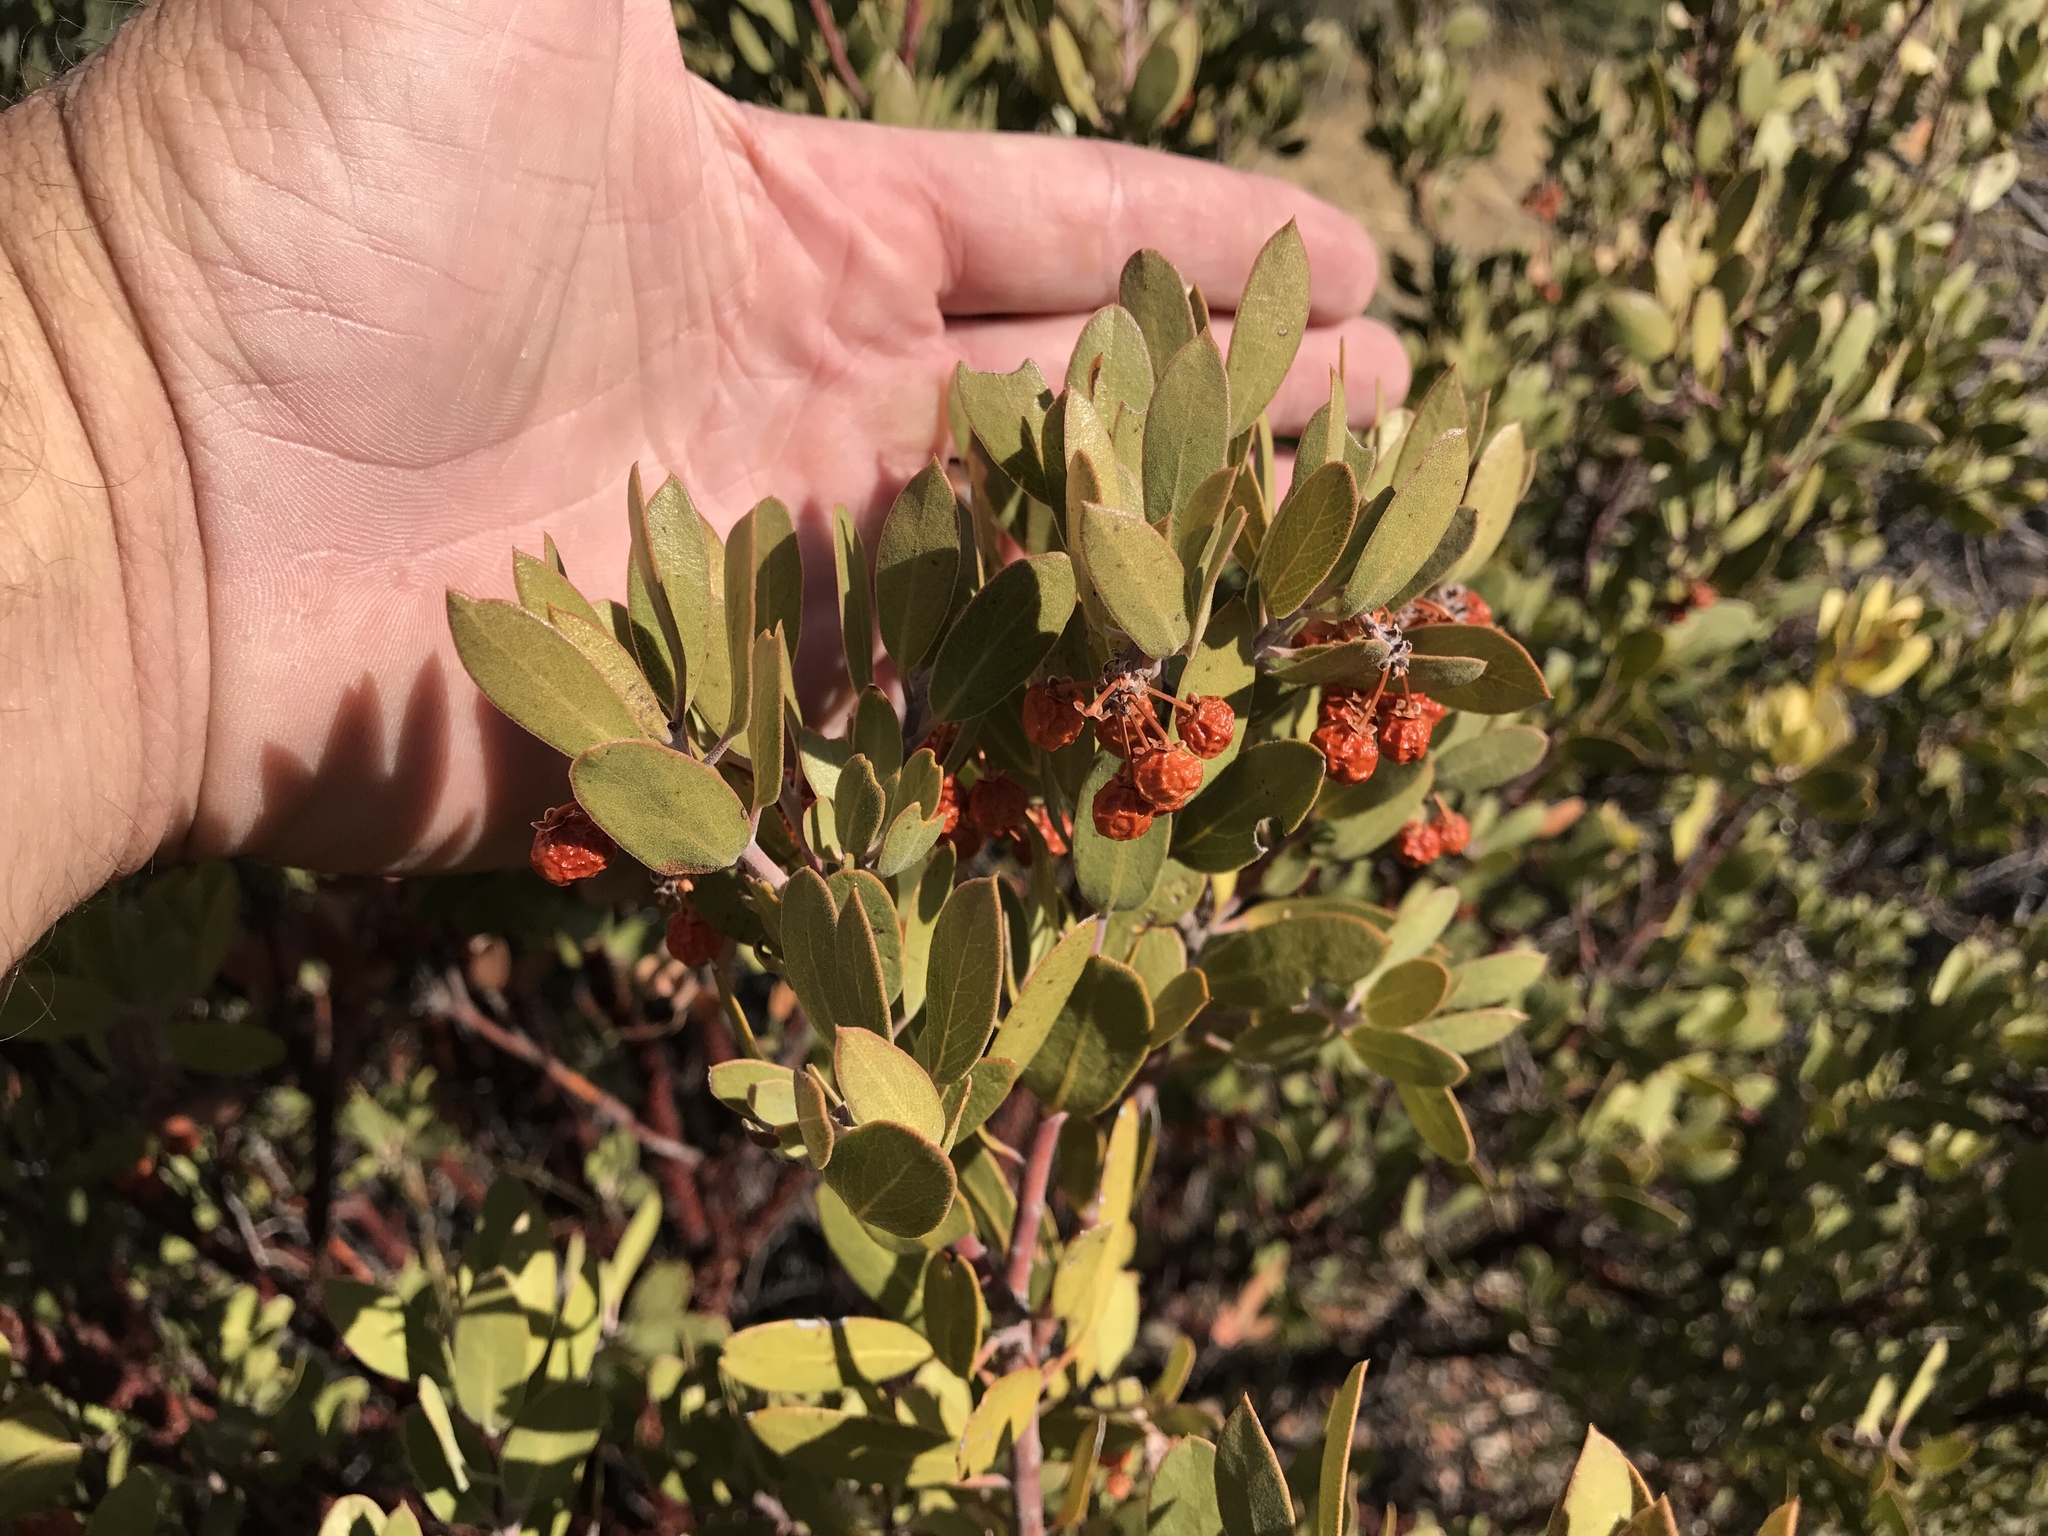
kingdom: Plantae
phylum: Tracheophyta
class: Magnoliopsida
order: Ericales
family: Ericaceae
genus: Arctostaphylos
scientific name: Arctostaphylos pungens
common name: Mexican manzanita
